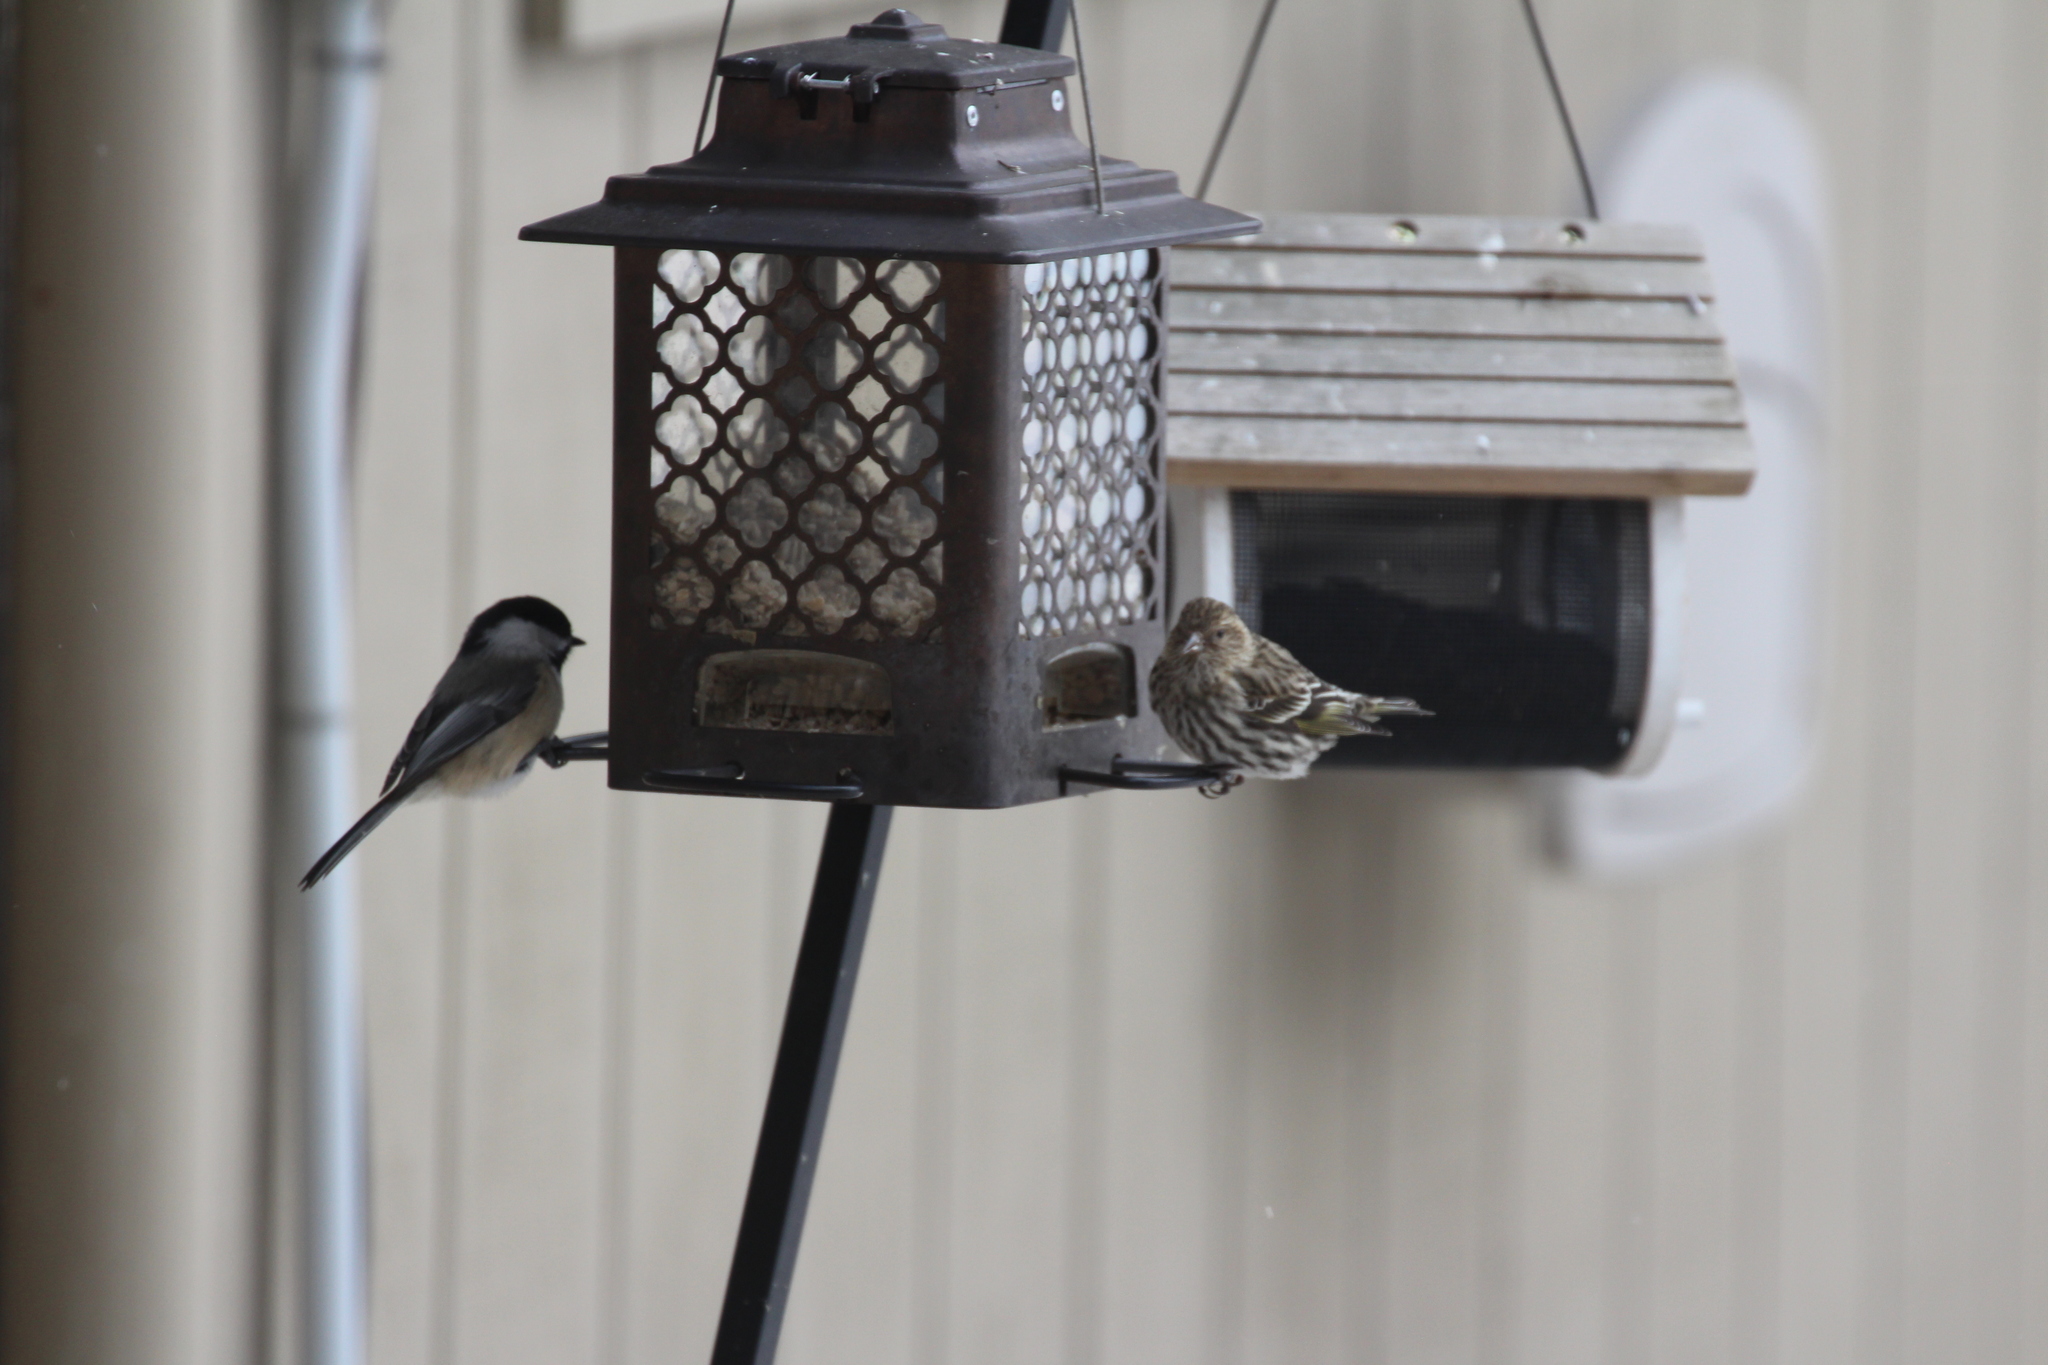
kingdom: Animalia
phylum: Chordata
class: Aves
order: Passeriformes
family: Paridae
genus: Poecile
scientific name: Poecile atricapillus
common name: Black-capped chickadee
